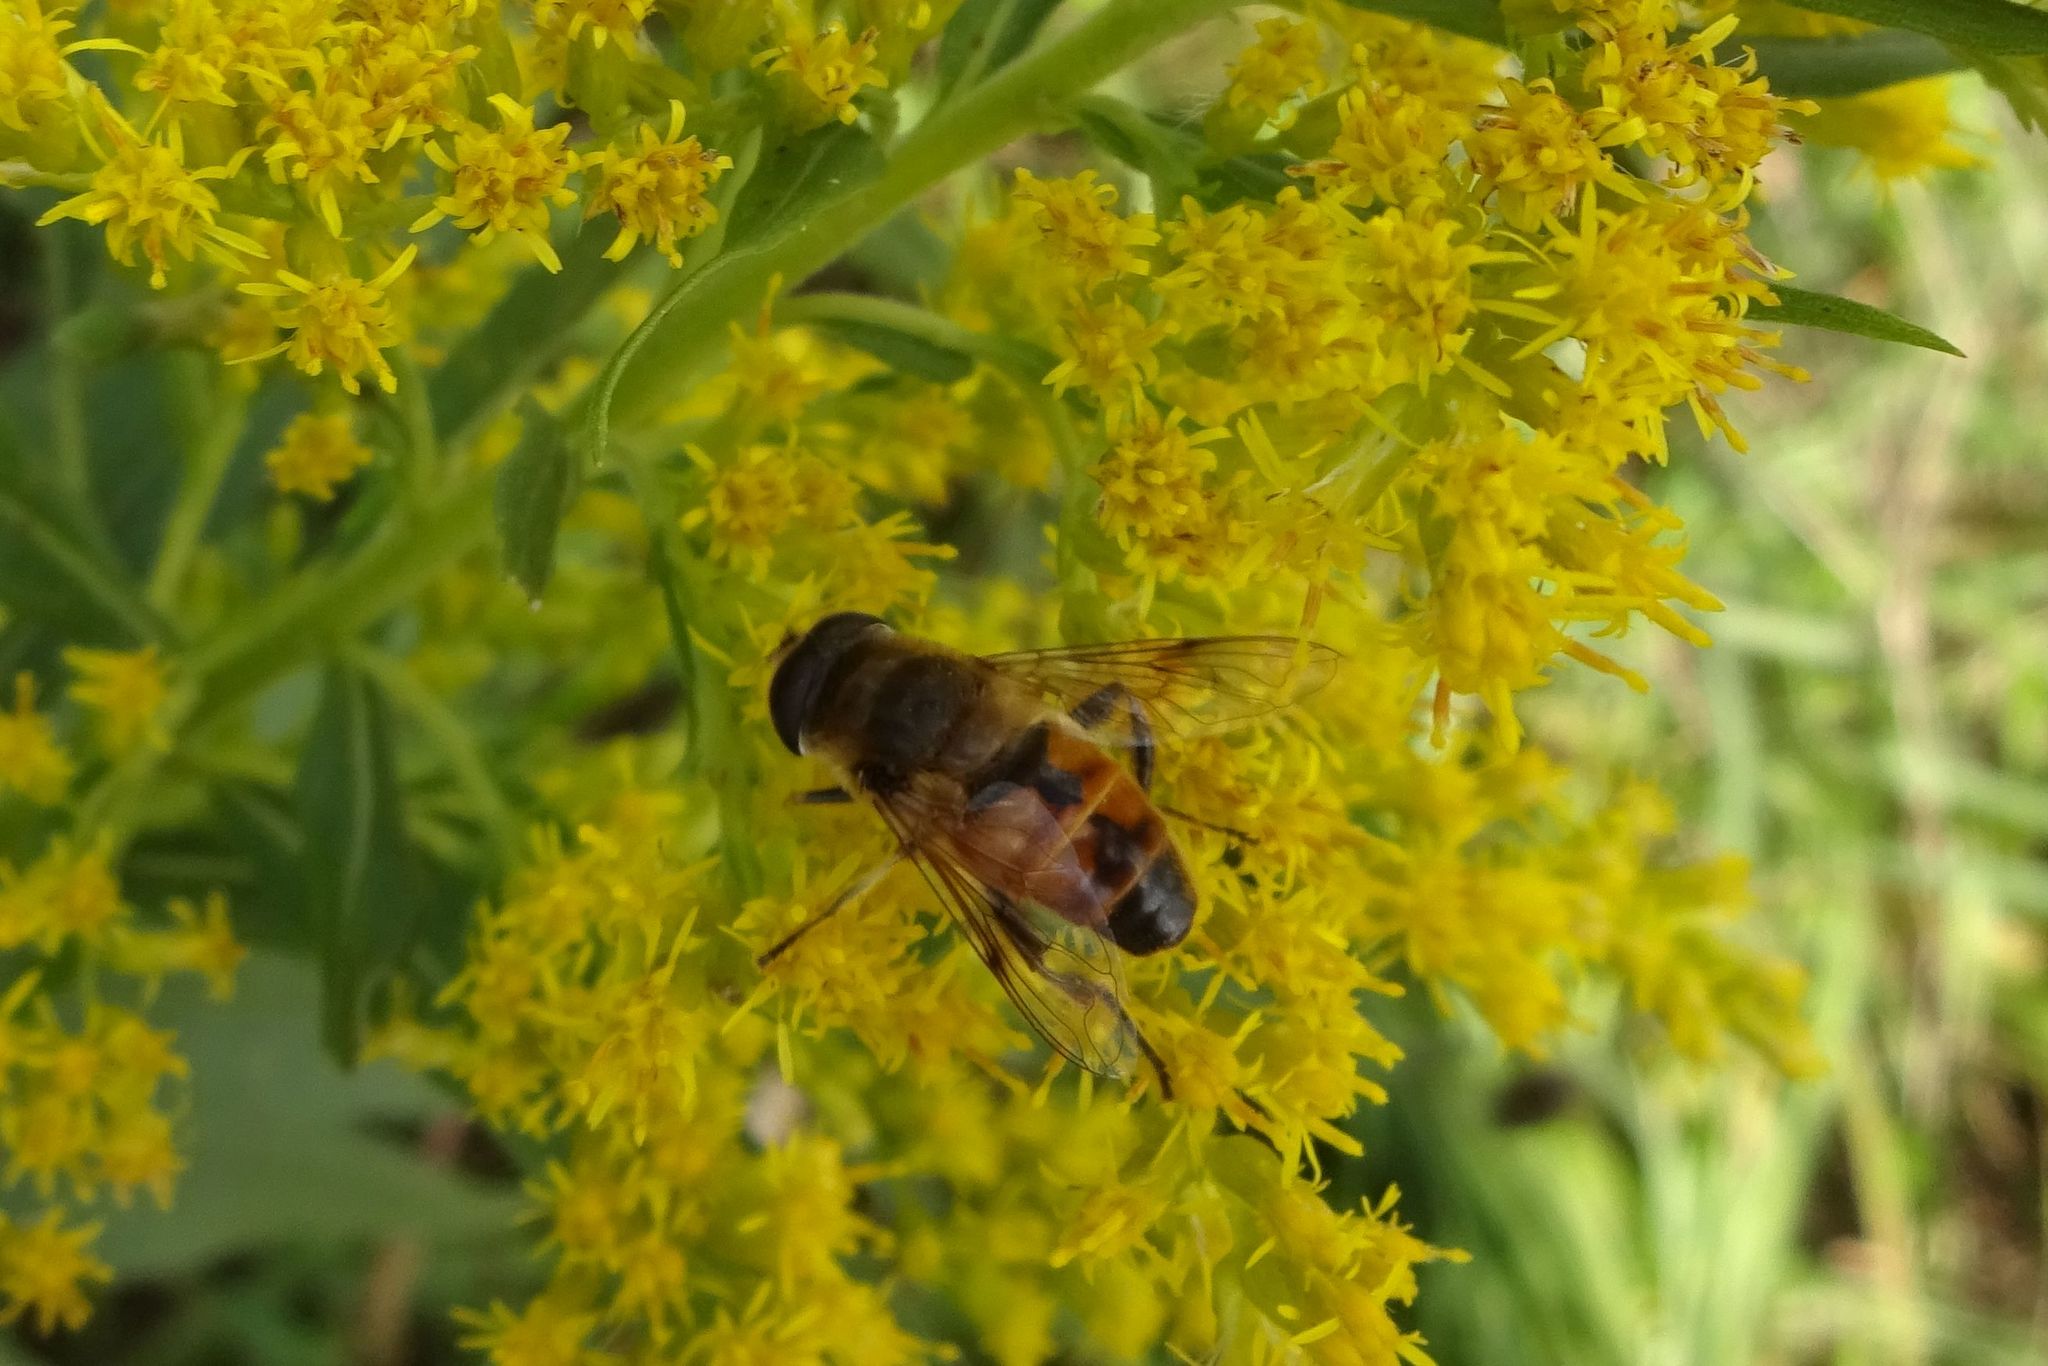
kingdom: Animalia
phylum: Arthropoda
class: Insecta
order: Diptera
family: Syrphidae
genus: Eristalis
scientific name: Eristalis tenax
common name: Drone fly
